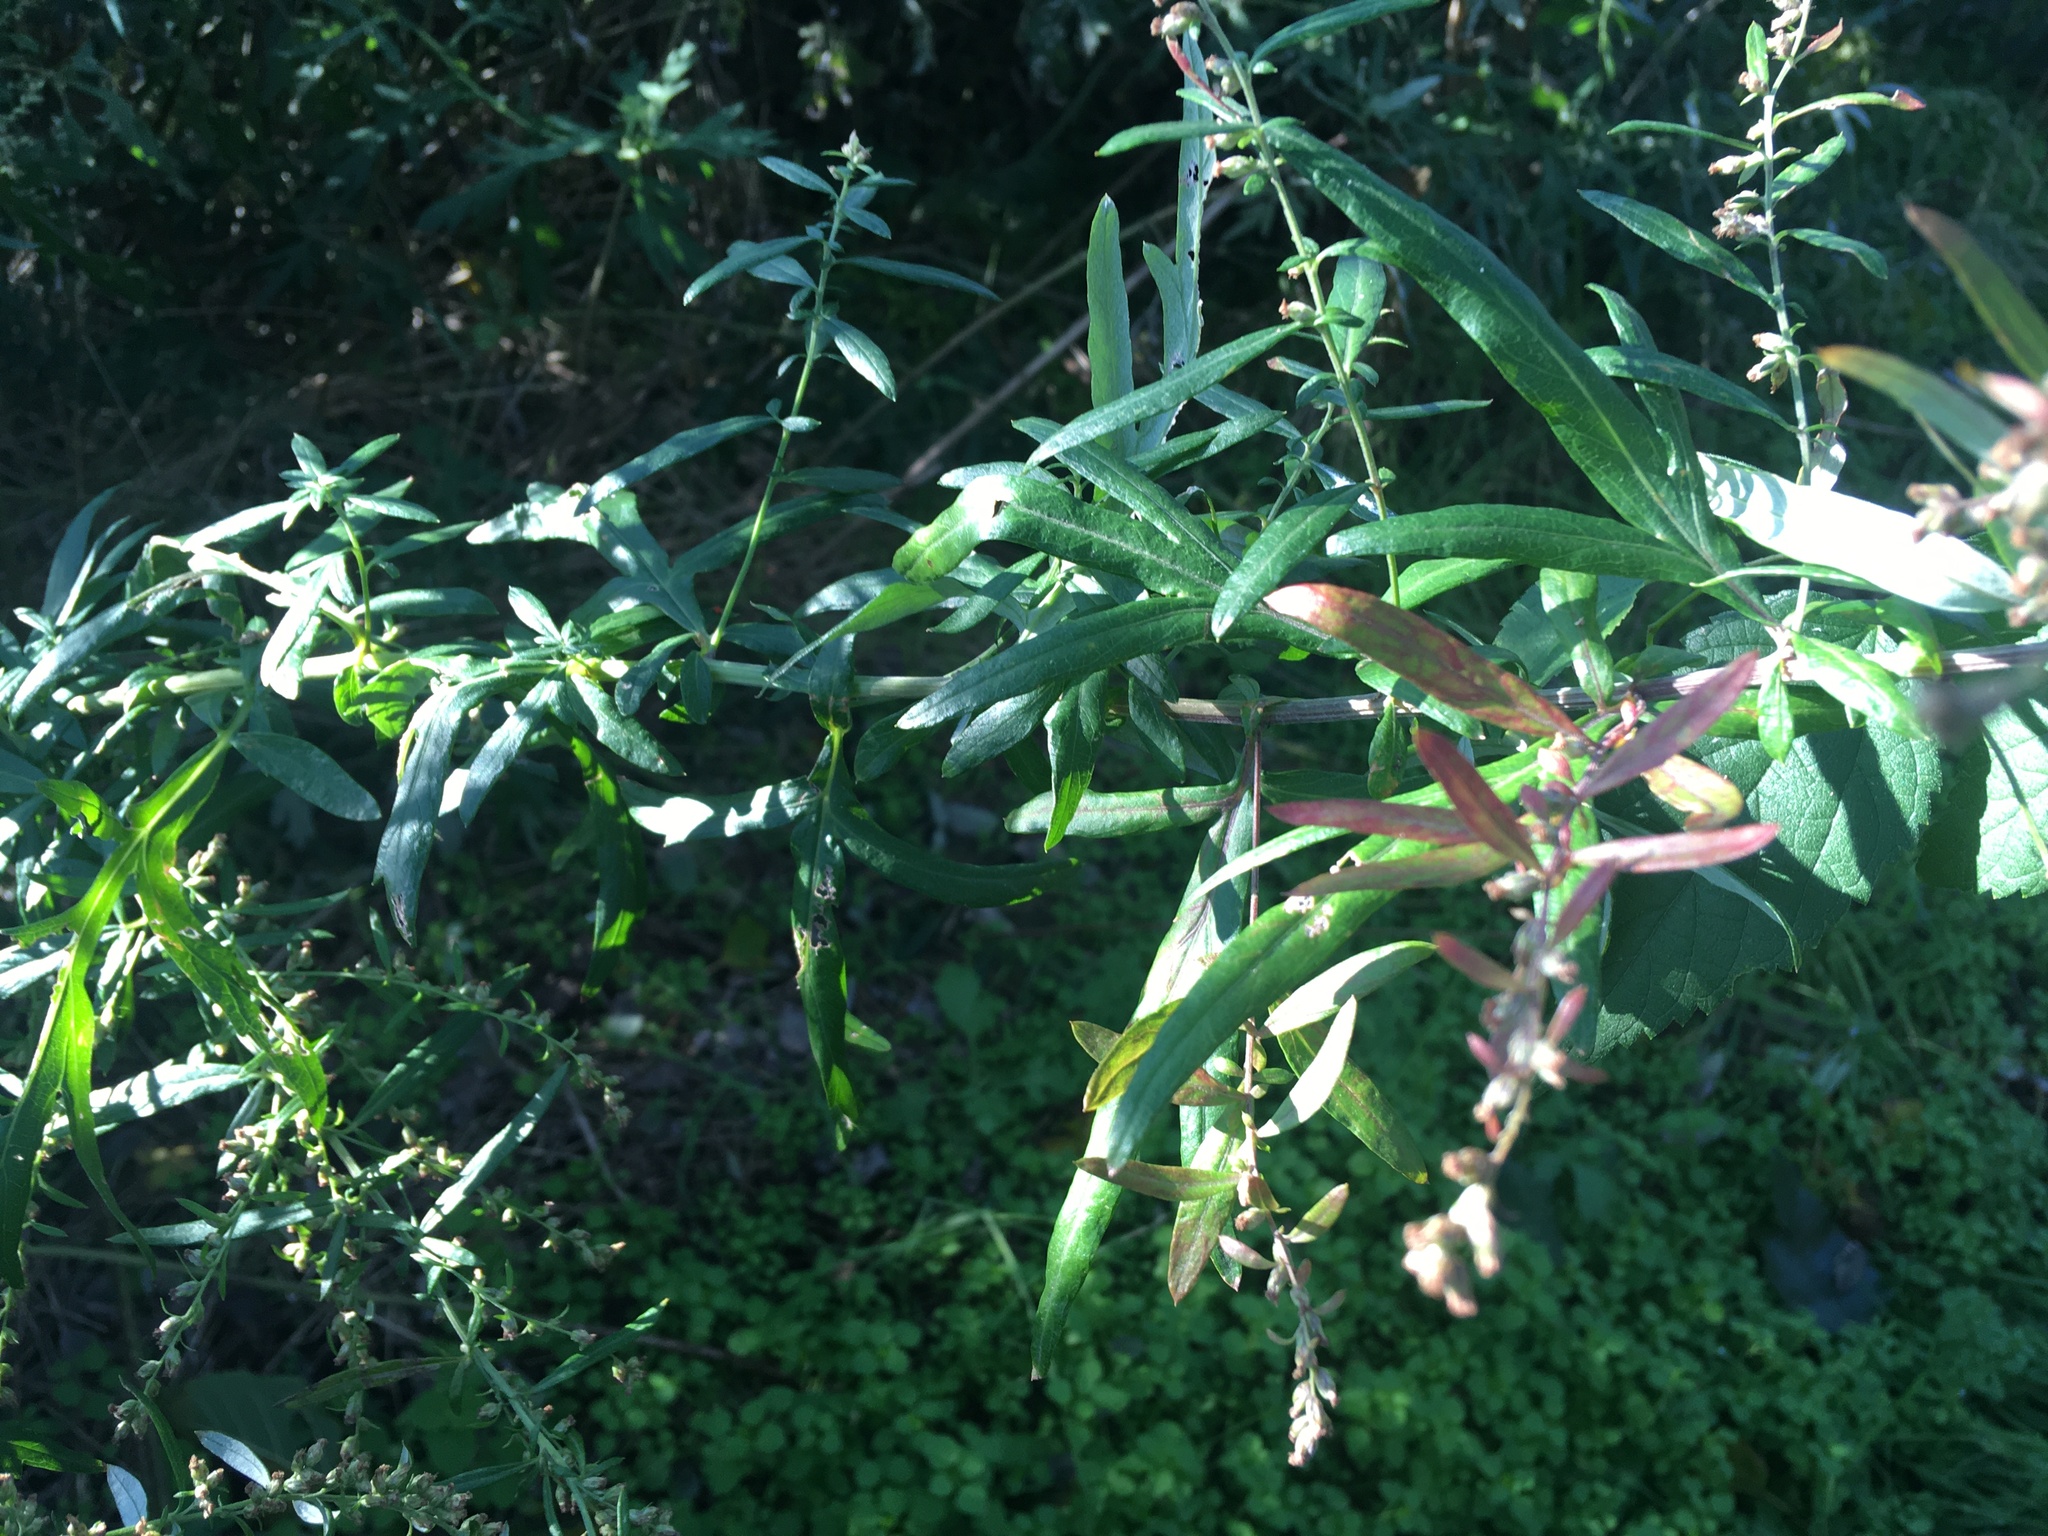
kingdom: Plantae
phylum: Tracheophyta
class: Magnoliopsida
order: Asterales
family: Asteraceae
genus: Artemisia
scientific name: Artemisia vulgaris
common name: Mugwort
